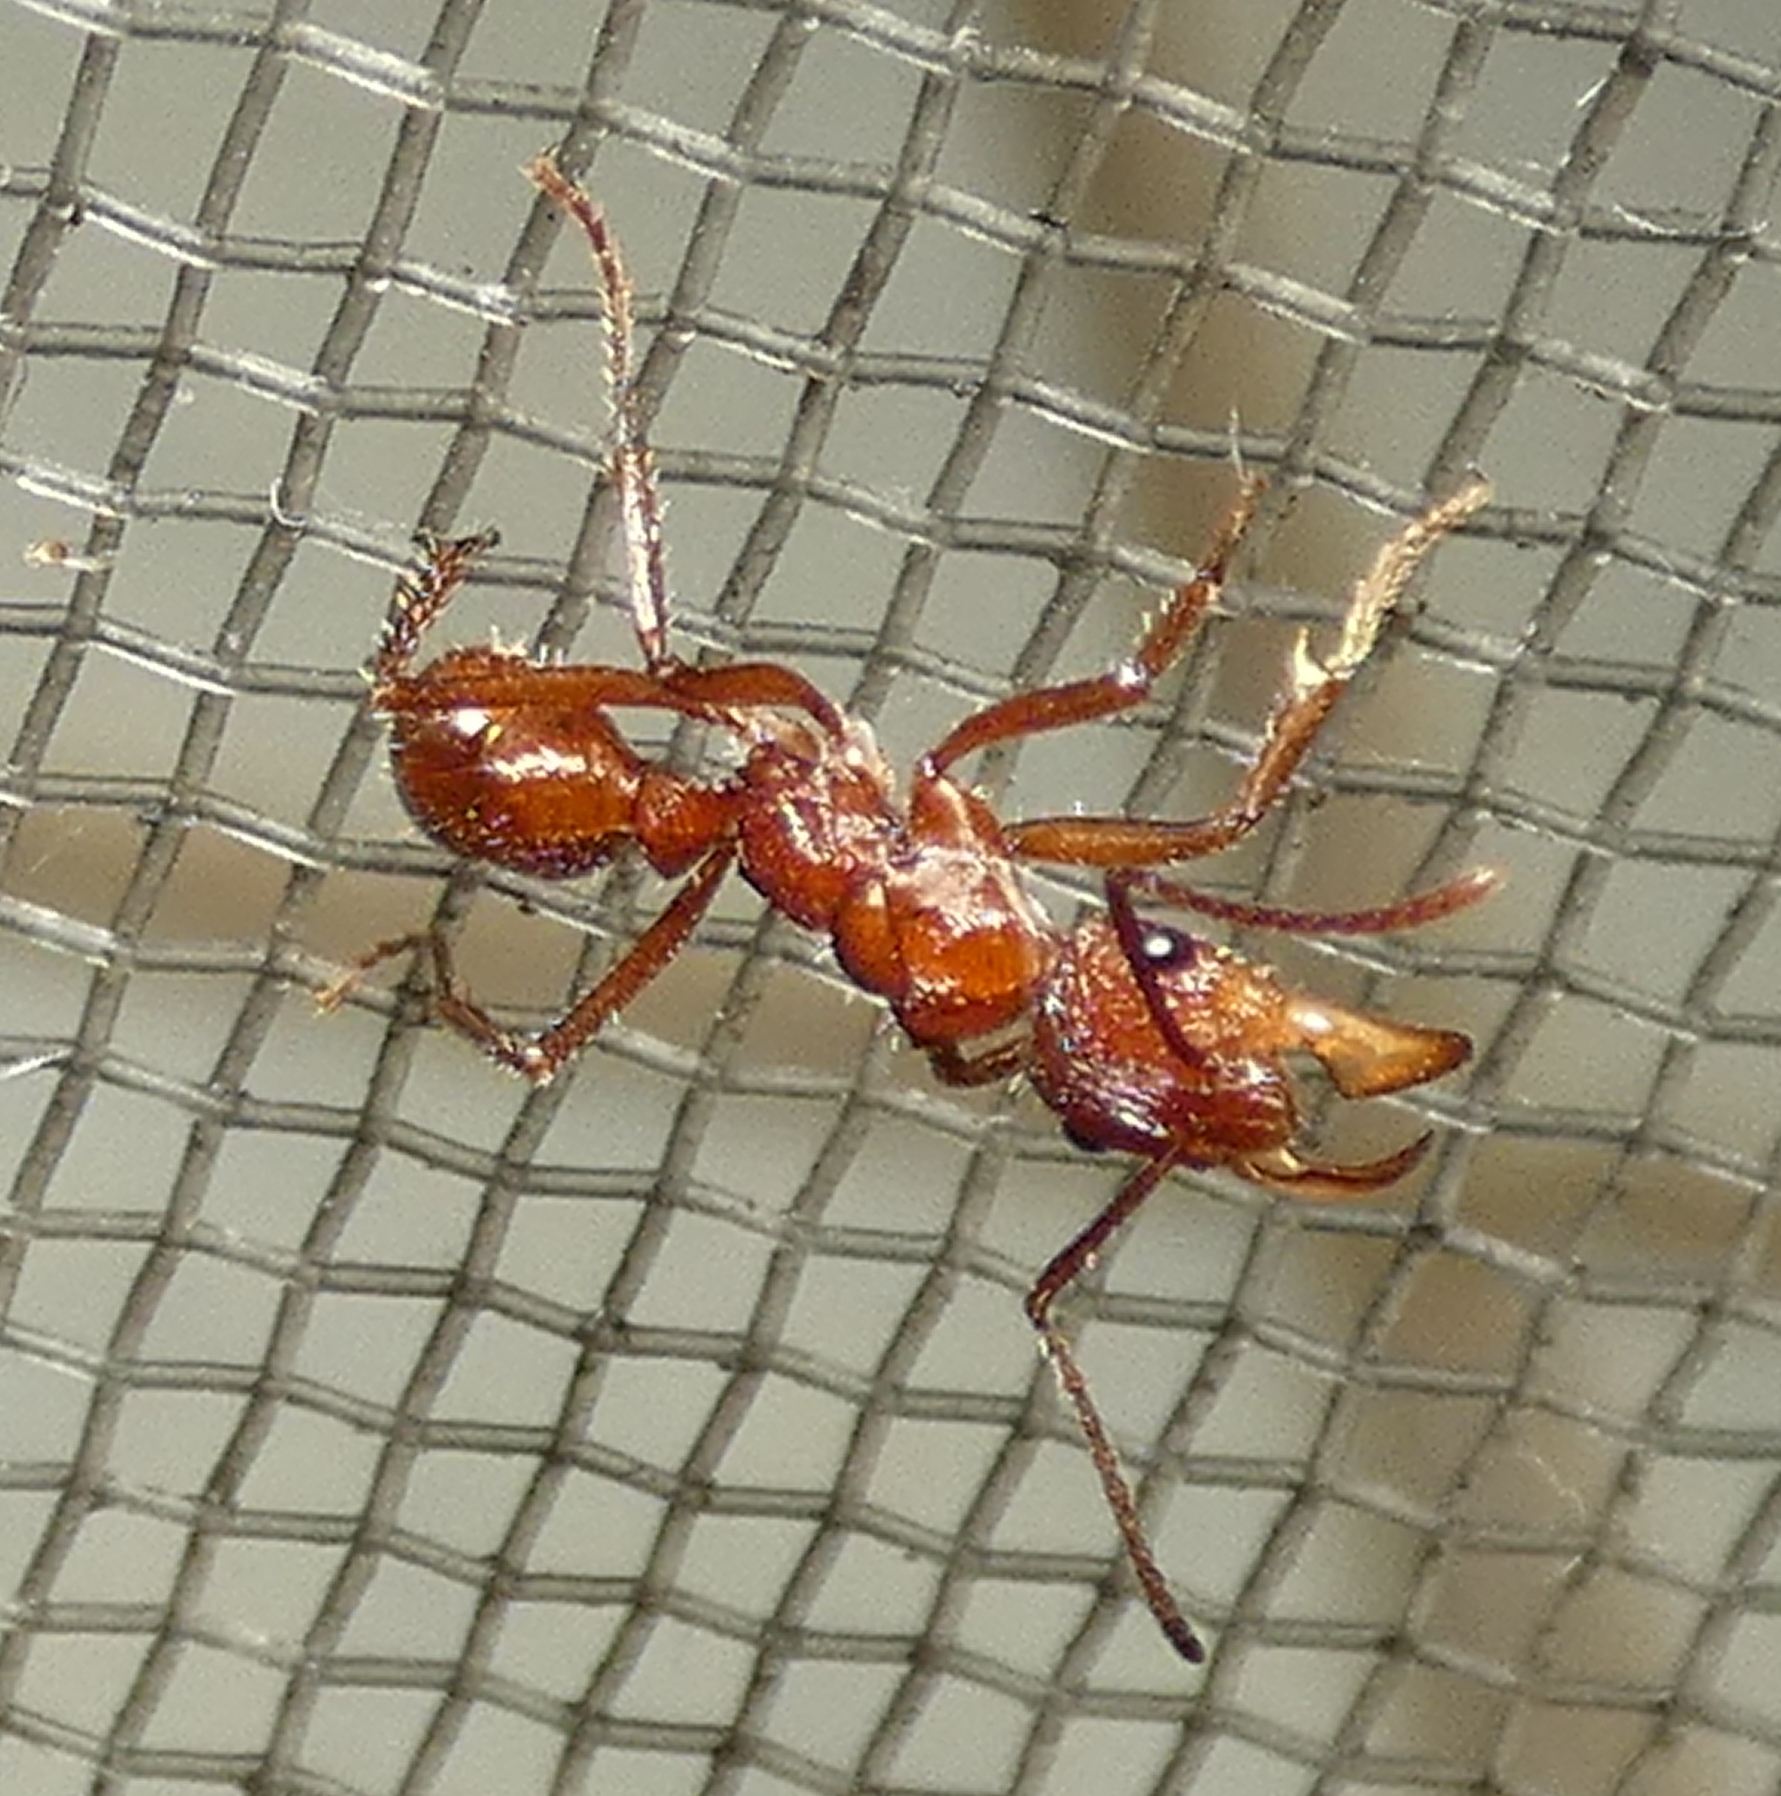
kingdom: Animalia
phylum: Arthropoda
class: Insecta
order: Hymenoptera
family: Formicidae
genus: Ectatomma
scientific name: Ectatomma tuberculatum
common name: Ant
